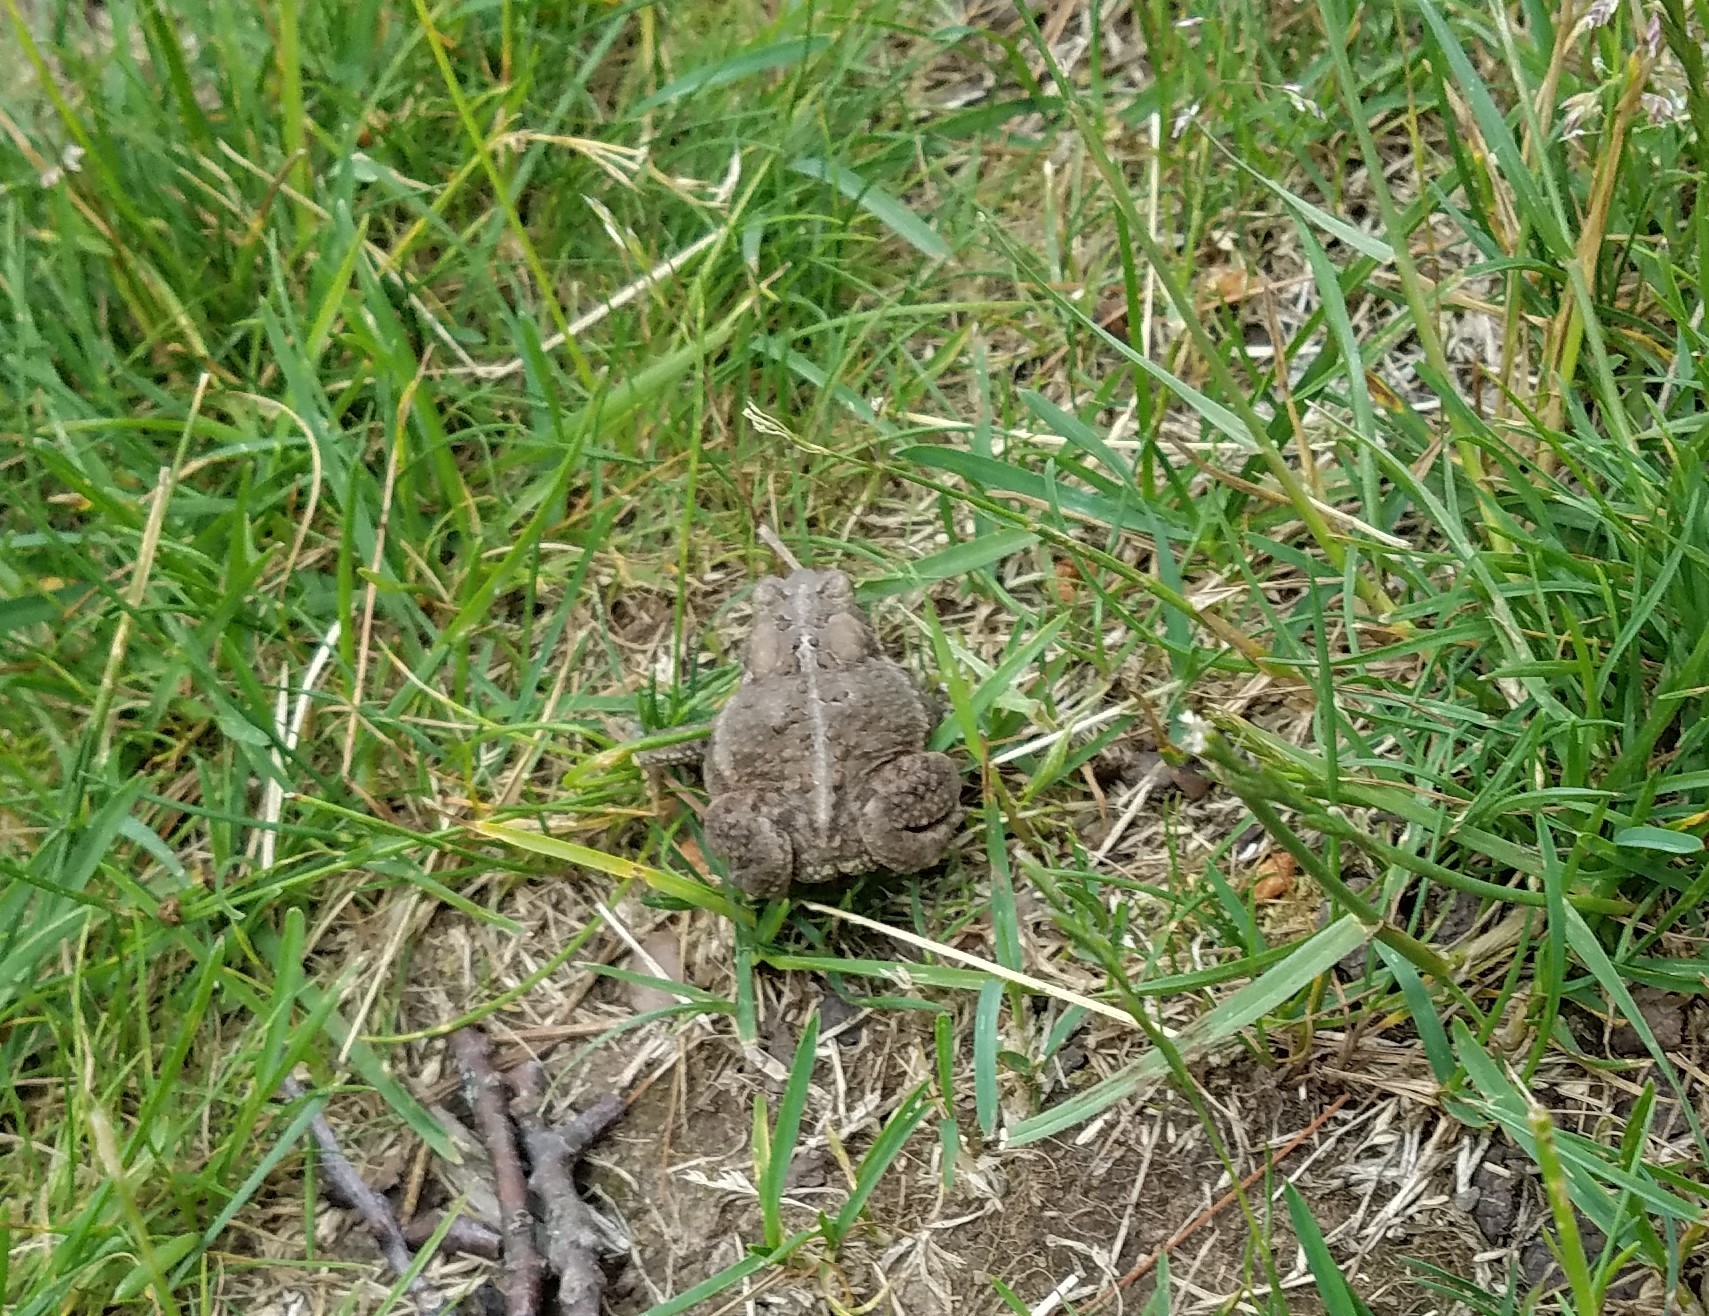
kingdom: Animalia
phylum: Chordata
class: Amphibia
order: Anura
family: Bufonidae
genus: Anaxyrus
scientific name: Anaxyrus americanus
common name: American toad
